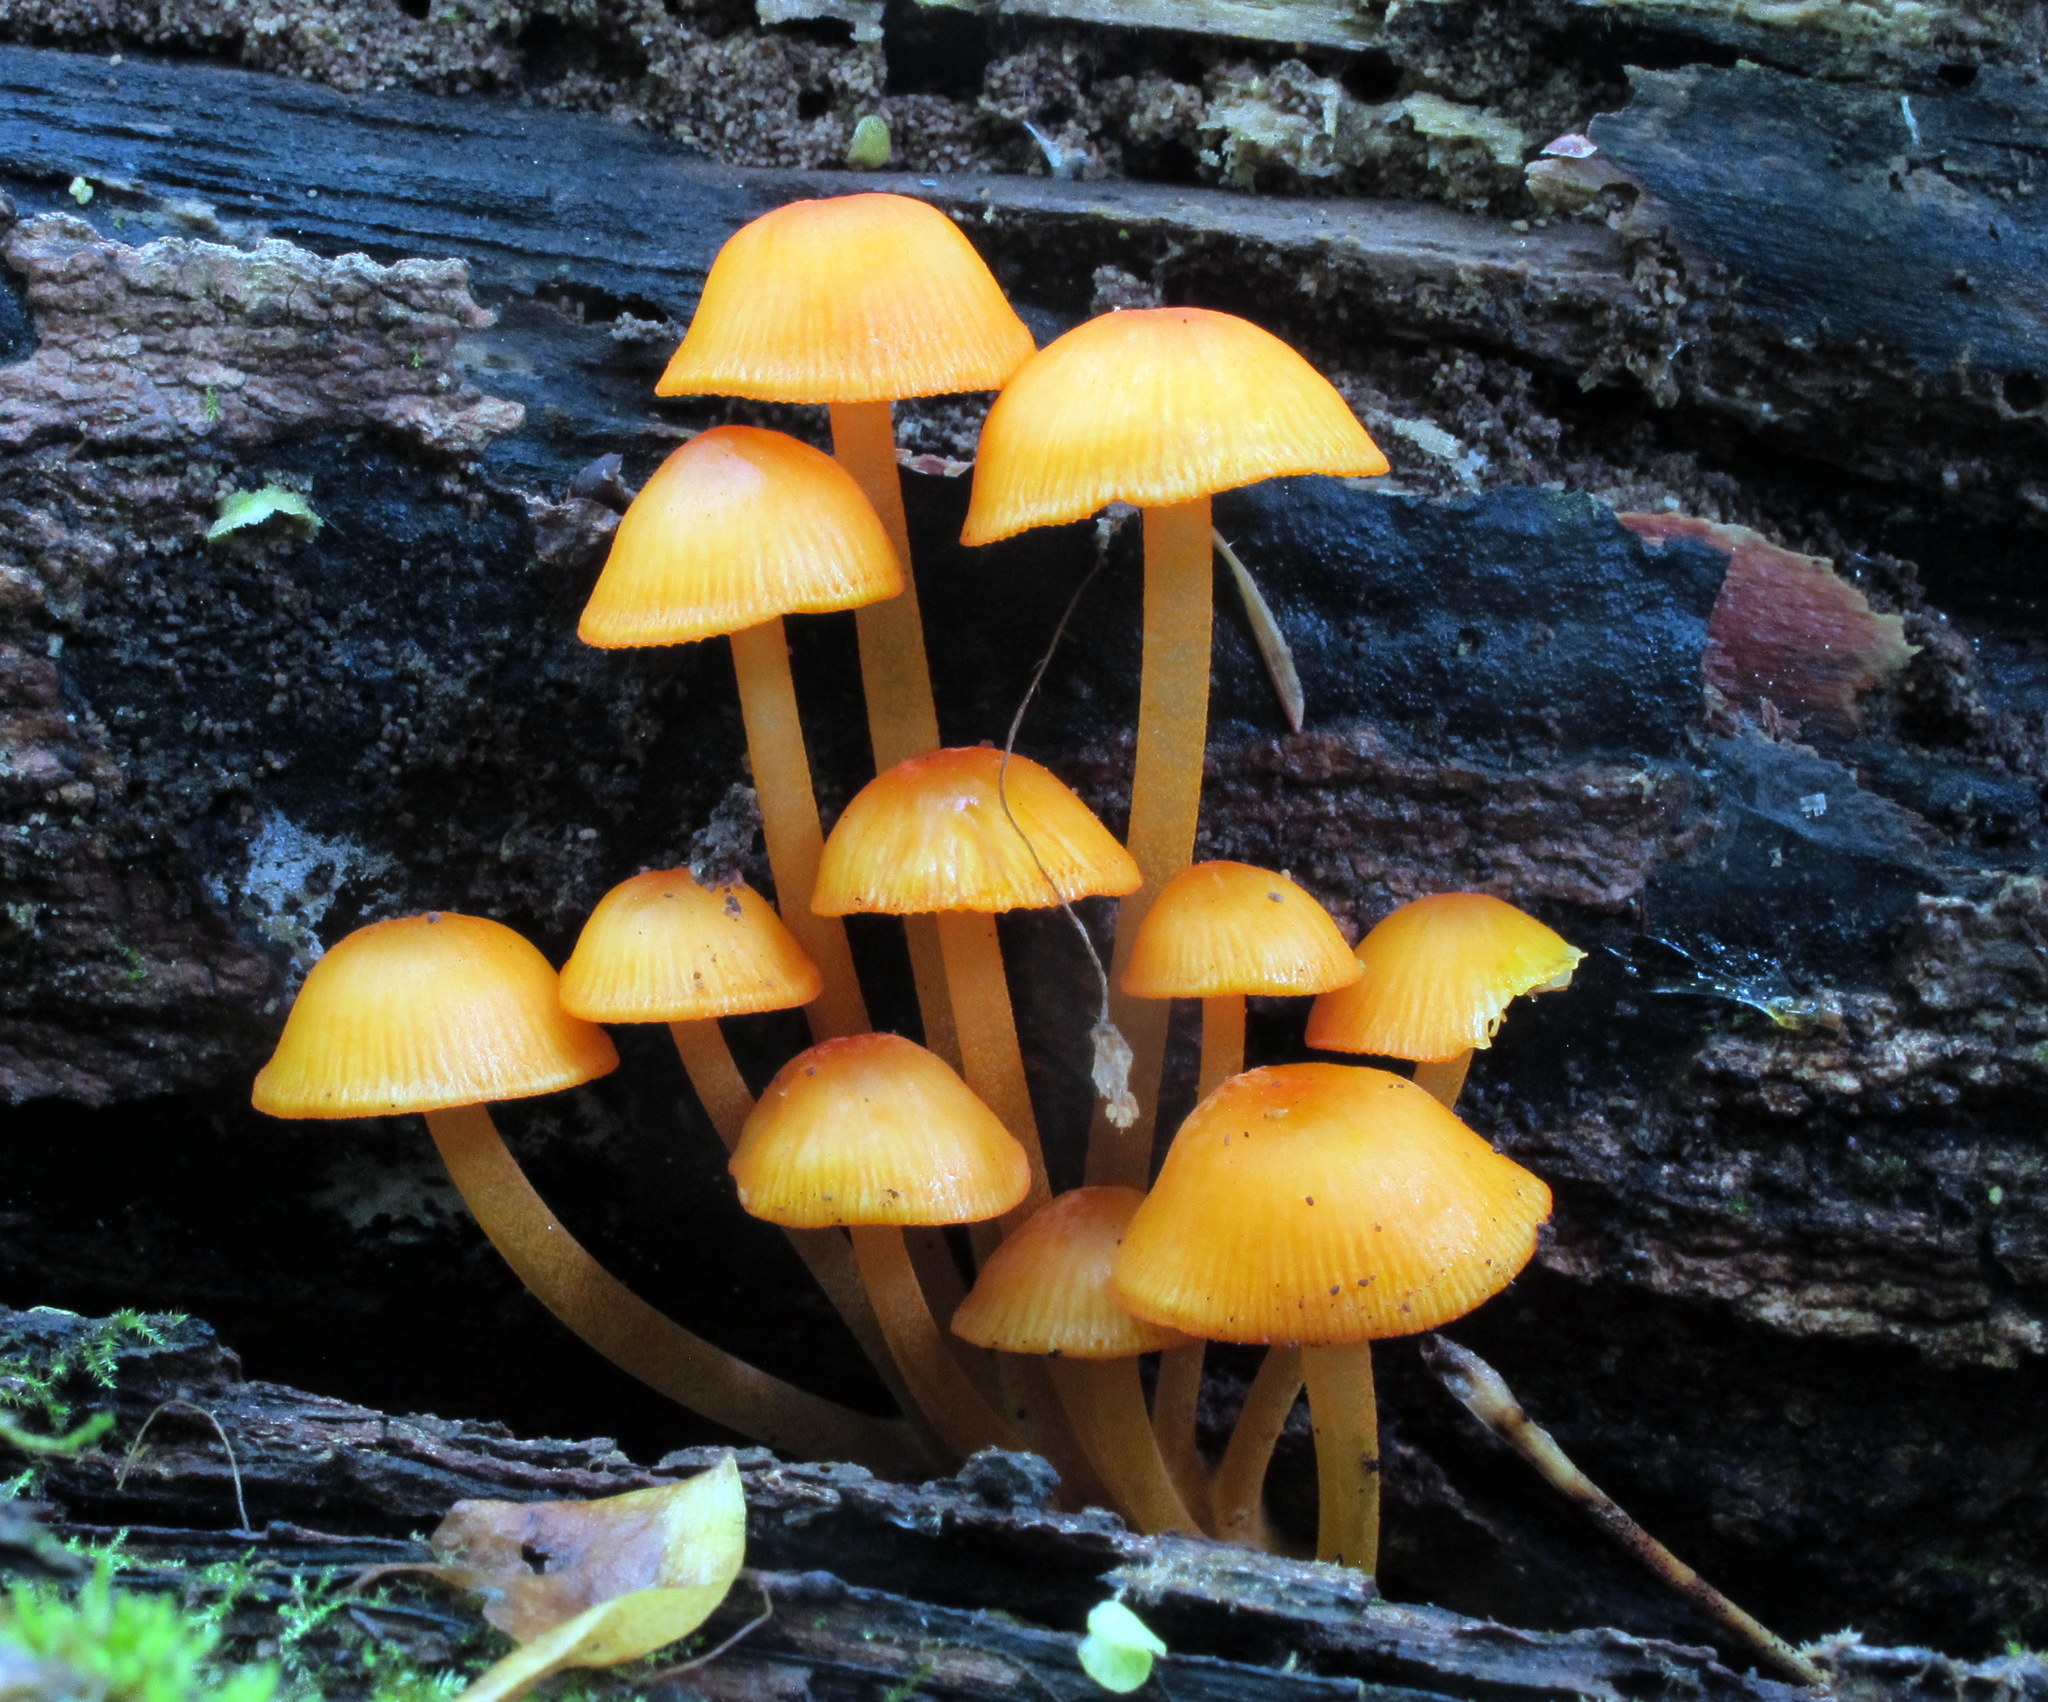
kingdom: Fungi
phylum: Basidiomycota
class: Agaricomycetes
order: Agaricales
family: Mycenaceae
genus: Mycena
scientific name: Mycena leaiana
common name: Orange mycena
